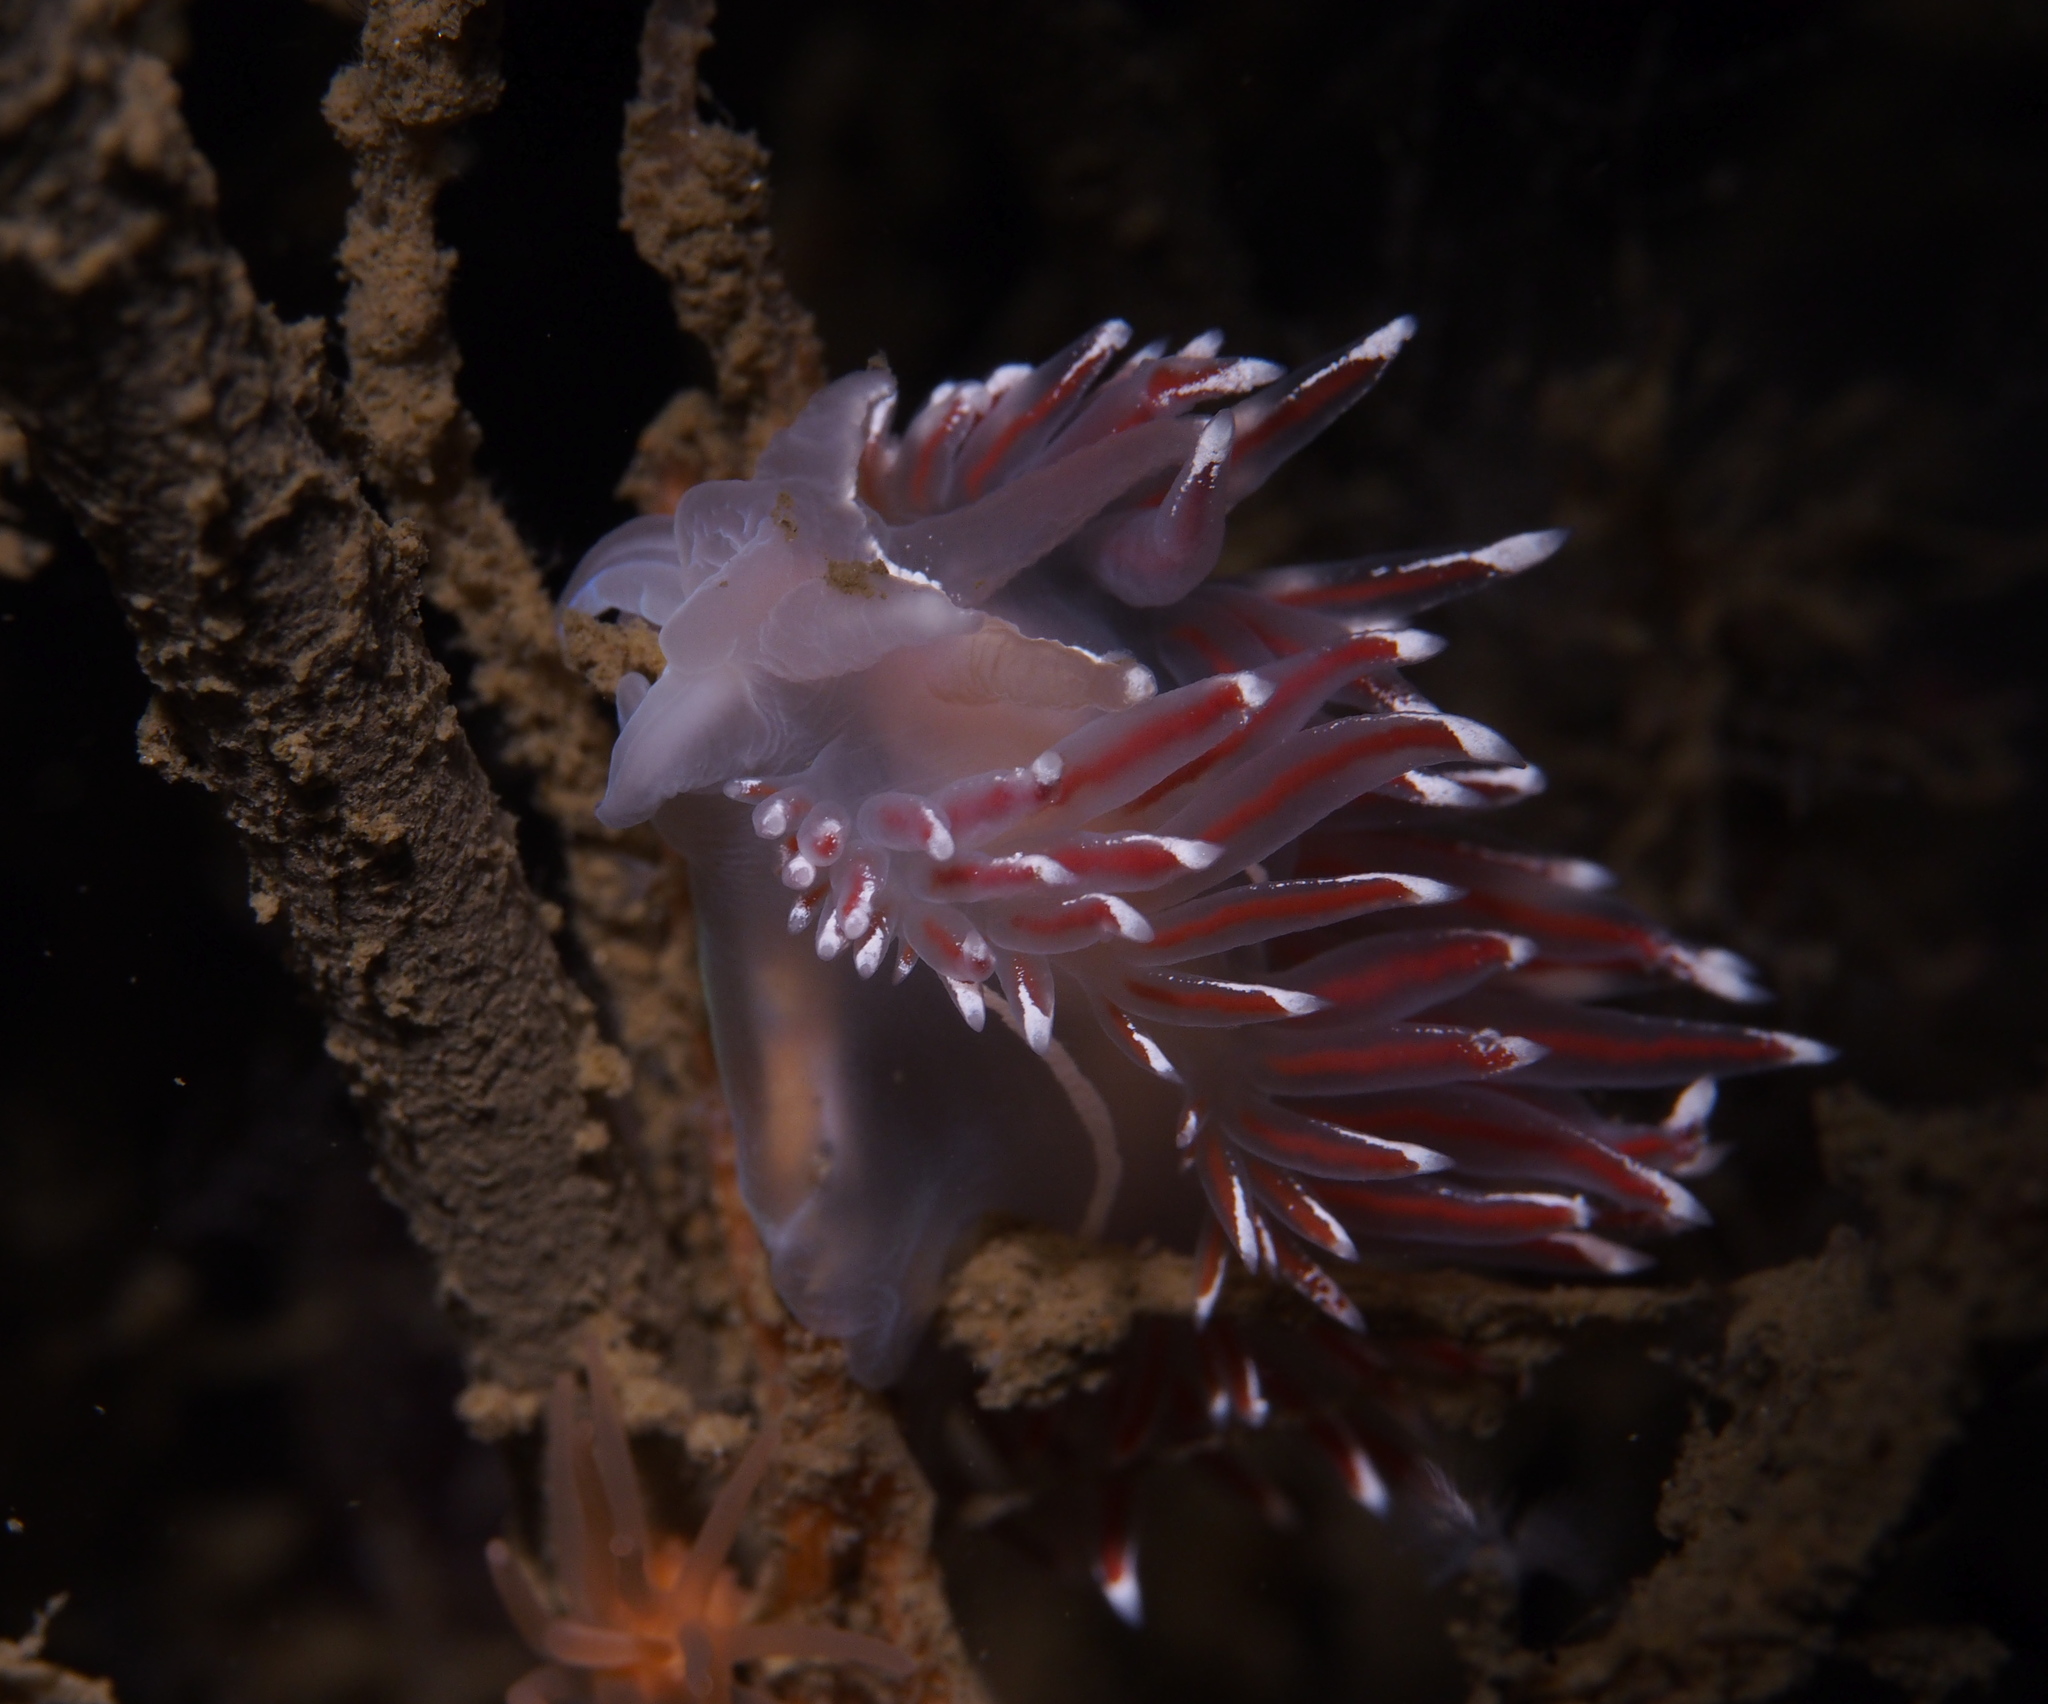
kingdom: Animalia
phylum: Mollusca
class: Gastropoda
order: Nudibranchia
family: Coryphellidae
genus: Coryphella
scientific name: Coryphella lineata
